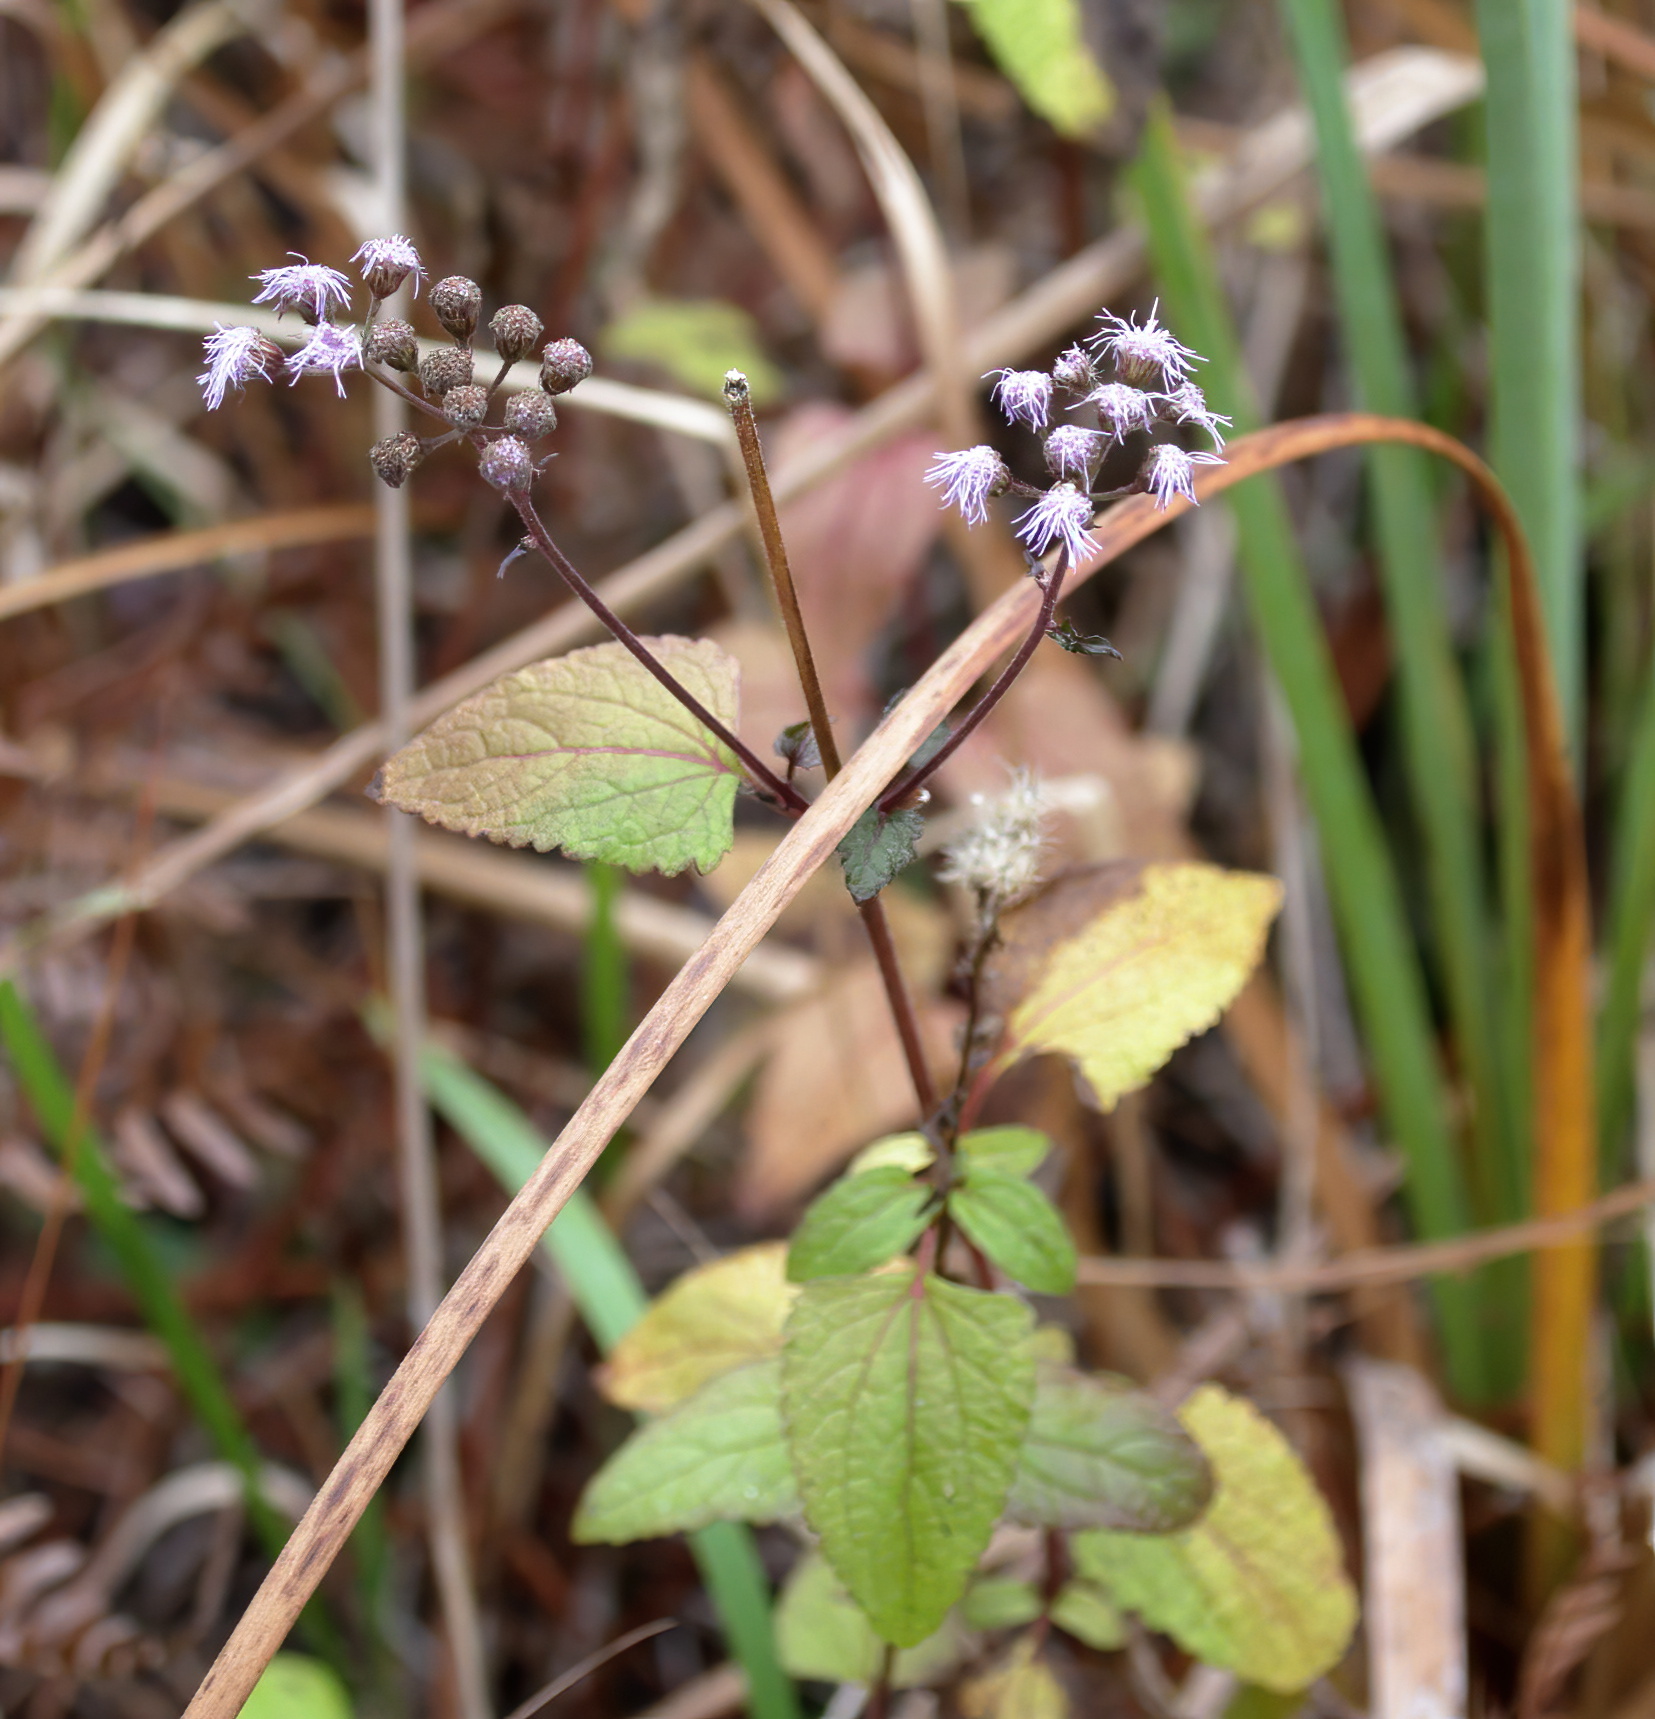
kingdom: Plantae
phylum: Tracheophyta
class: Magnoliopsida
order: Asterales
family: Asteraceae
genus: Conoclinium
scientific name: Conoclinium coelestinum
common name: Blue mistflower
